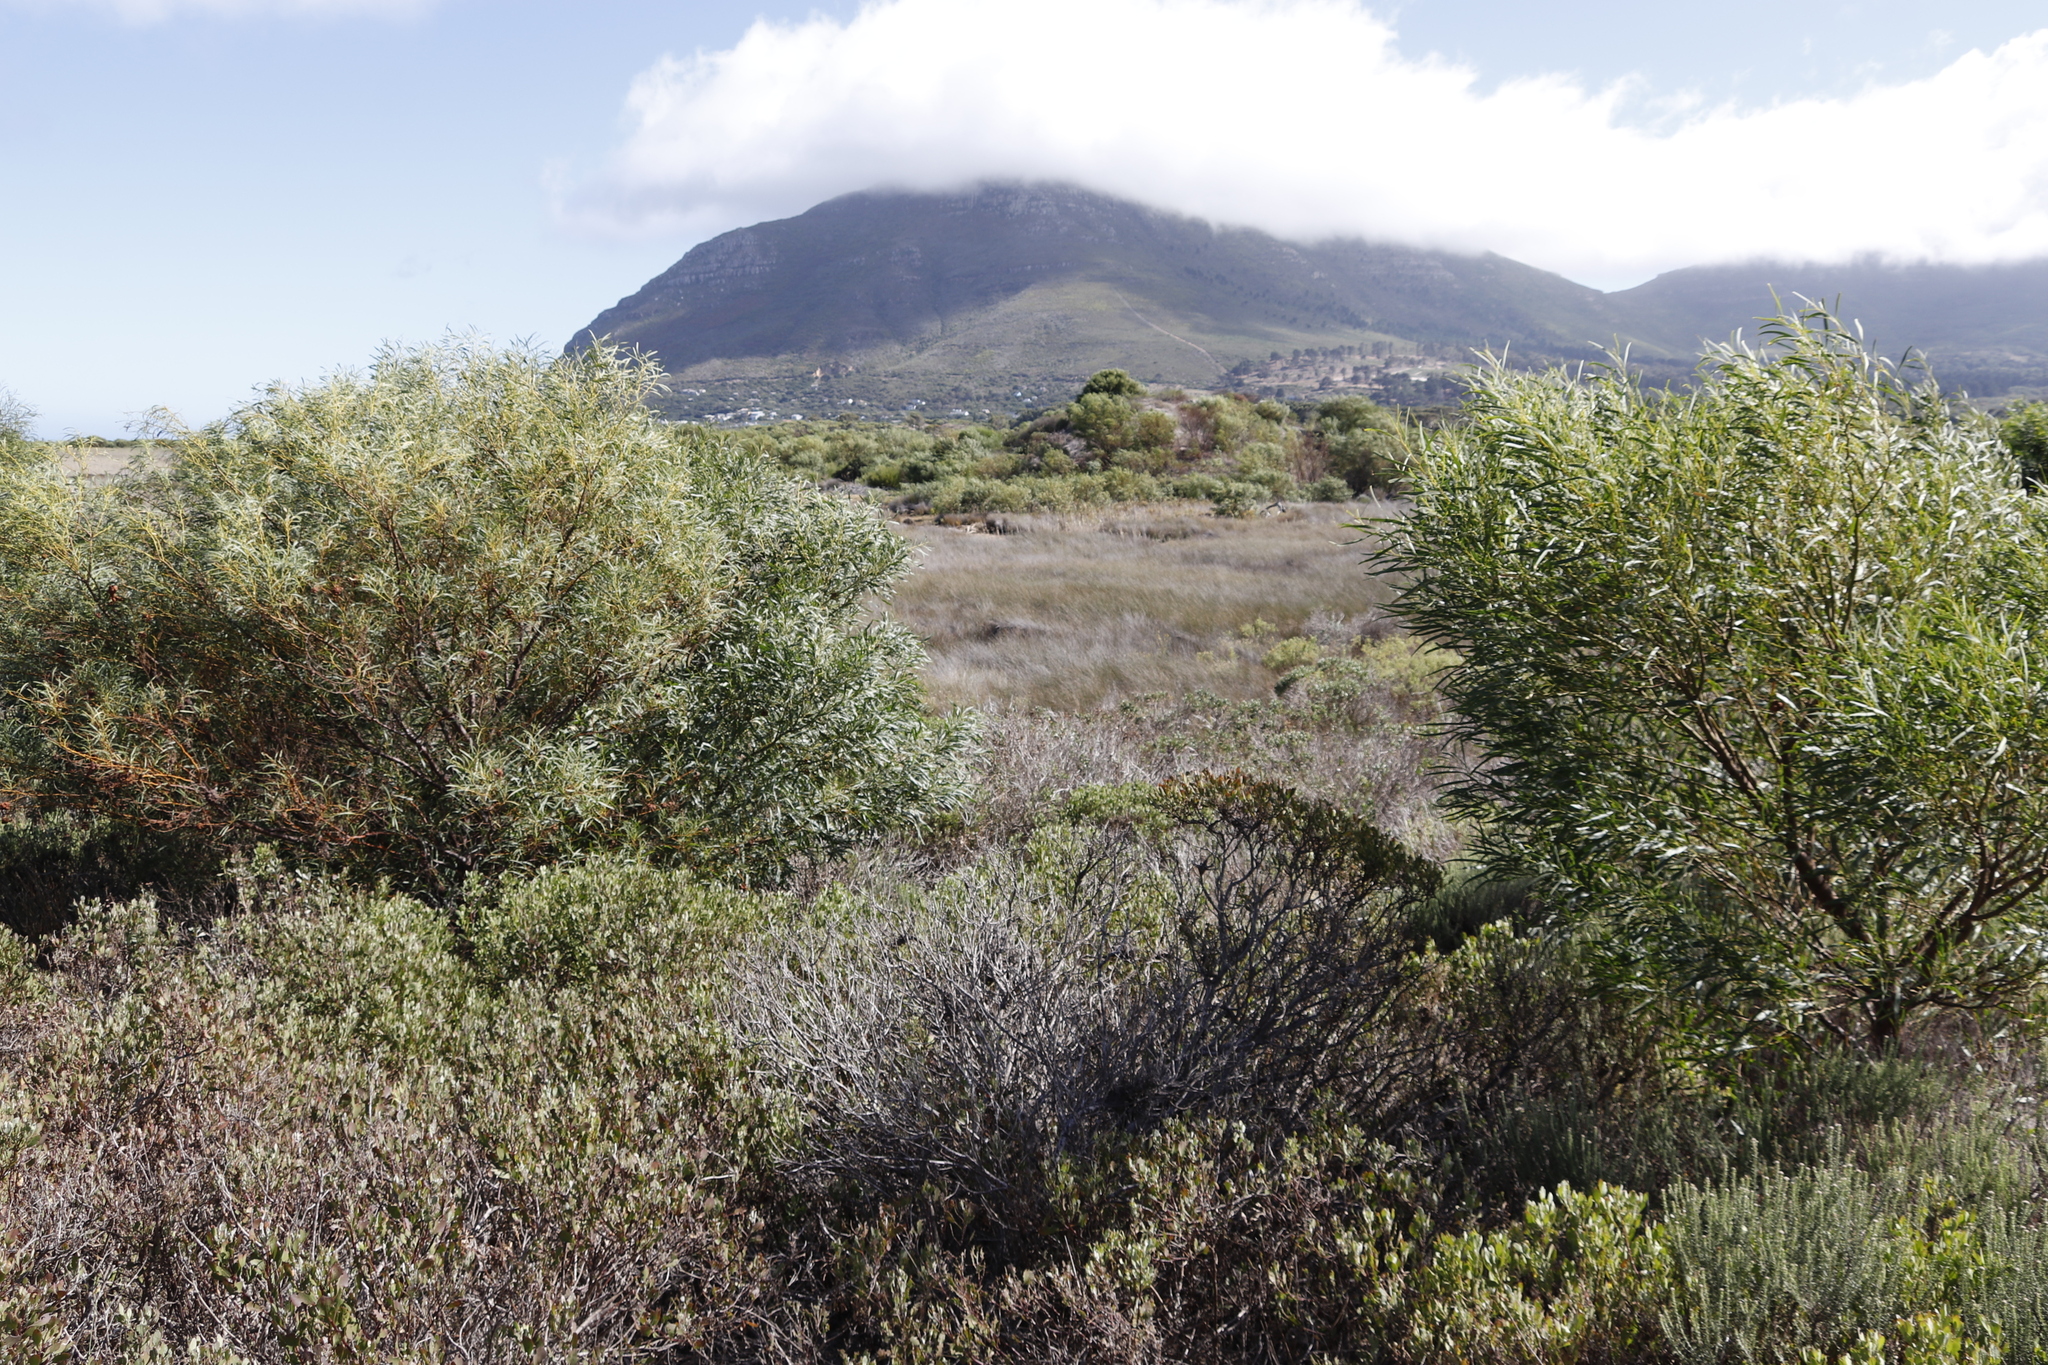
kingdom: Plantae
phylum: Tracheophyta
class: Magnoliopsida
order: Asterales
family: Asteraceae
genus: Osteospermum
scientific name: Osteospermum moniliferum
